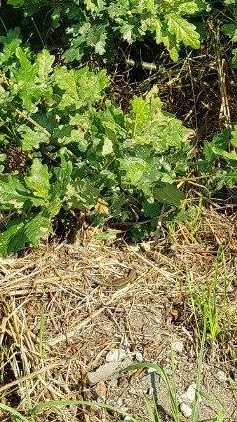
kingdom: Animalia
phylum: Chordata
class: Squamata
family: Lacertidae
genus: Zootoca
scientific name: Zootoca vivipara
